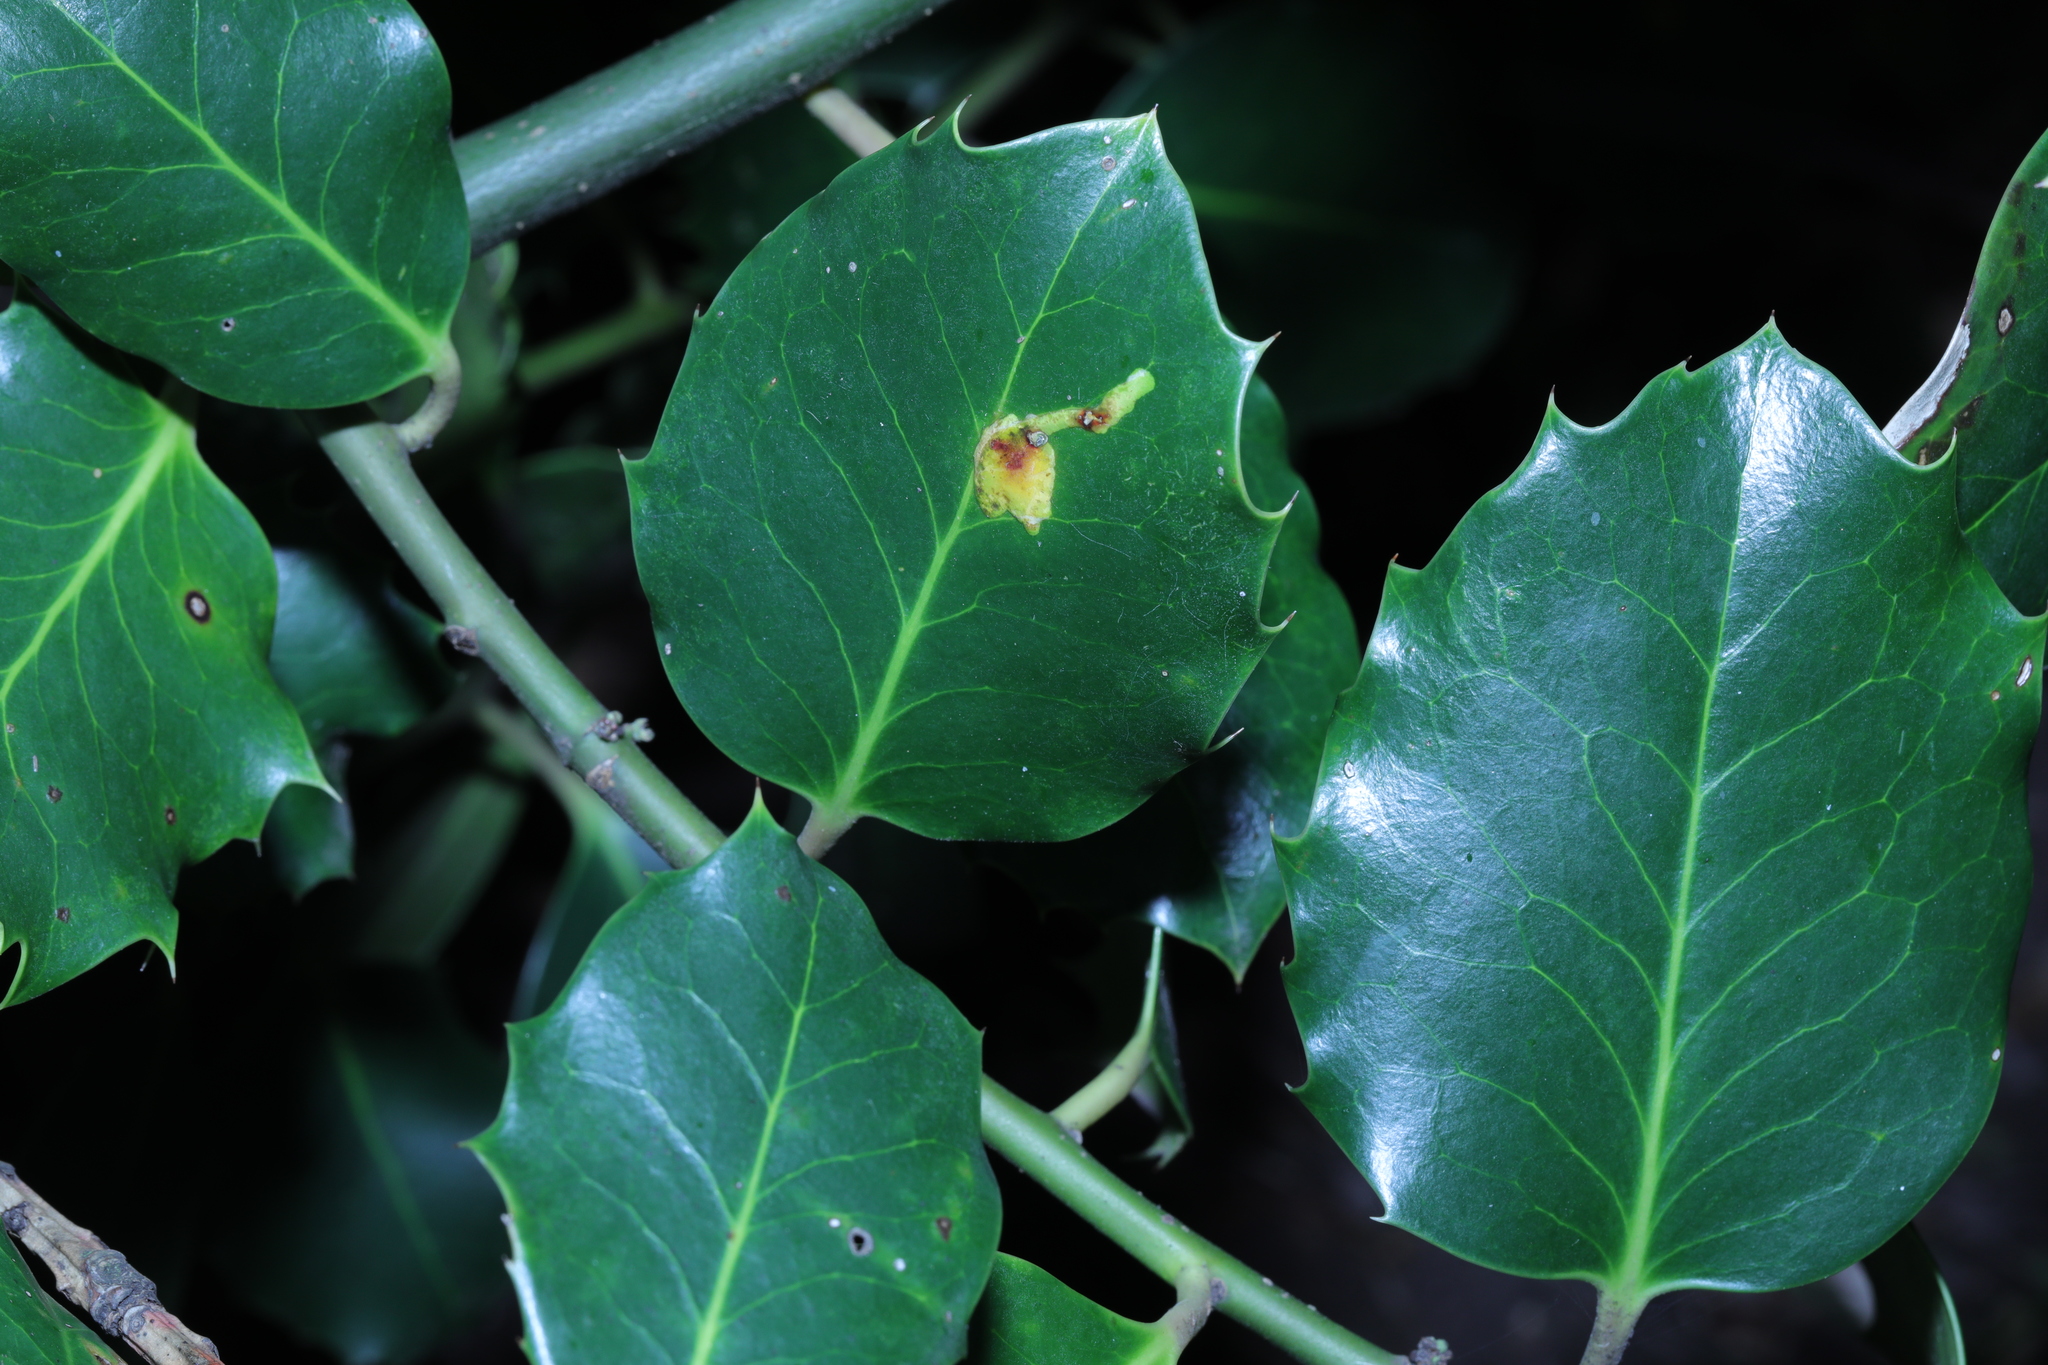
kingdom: Plantae
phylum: Tracheophyta
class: Magnoliopsida
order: Aquifoliales
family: Aquifoliaceae
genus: Ilex
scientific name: Ilex aquifolium
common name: English holly
